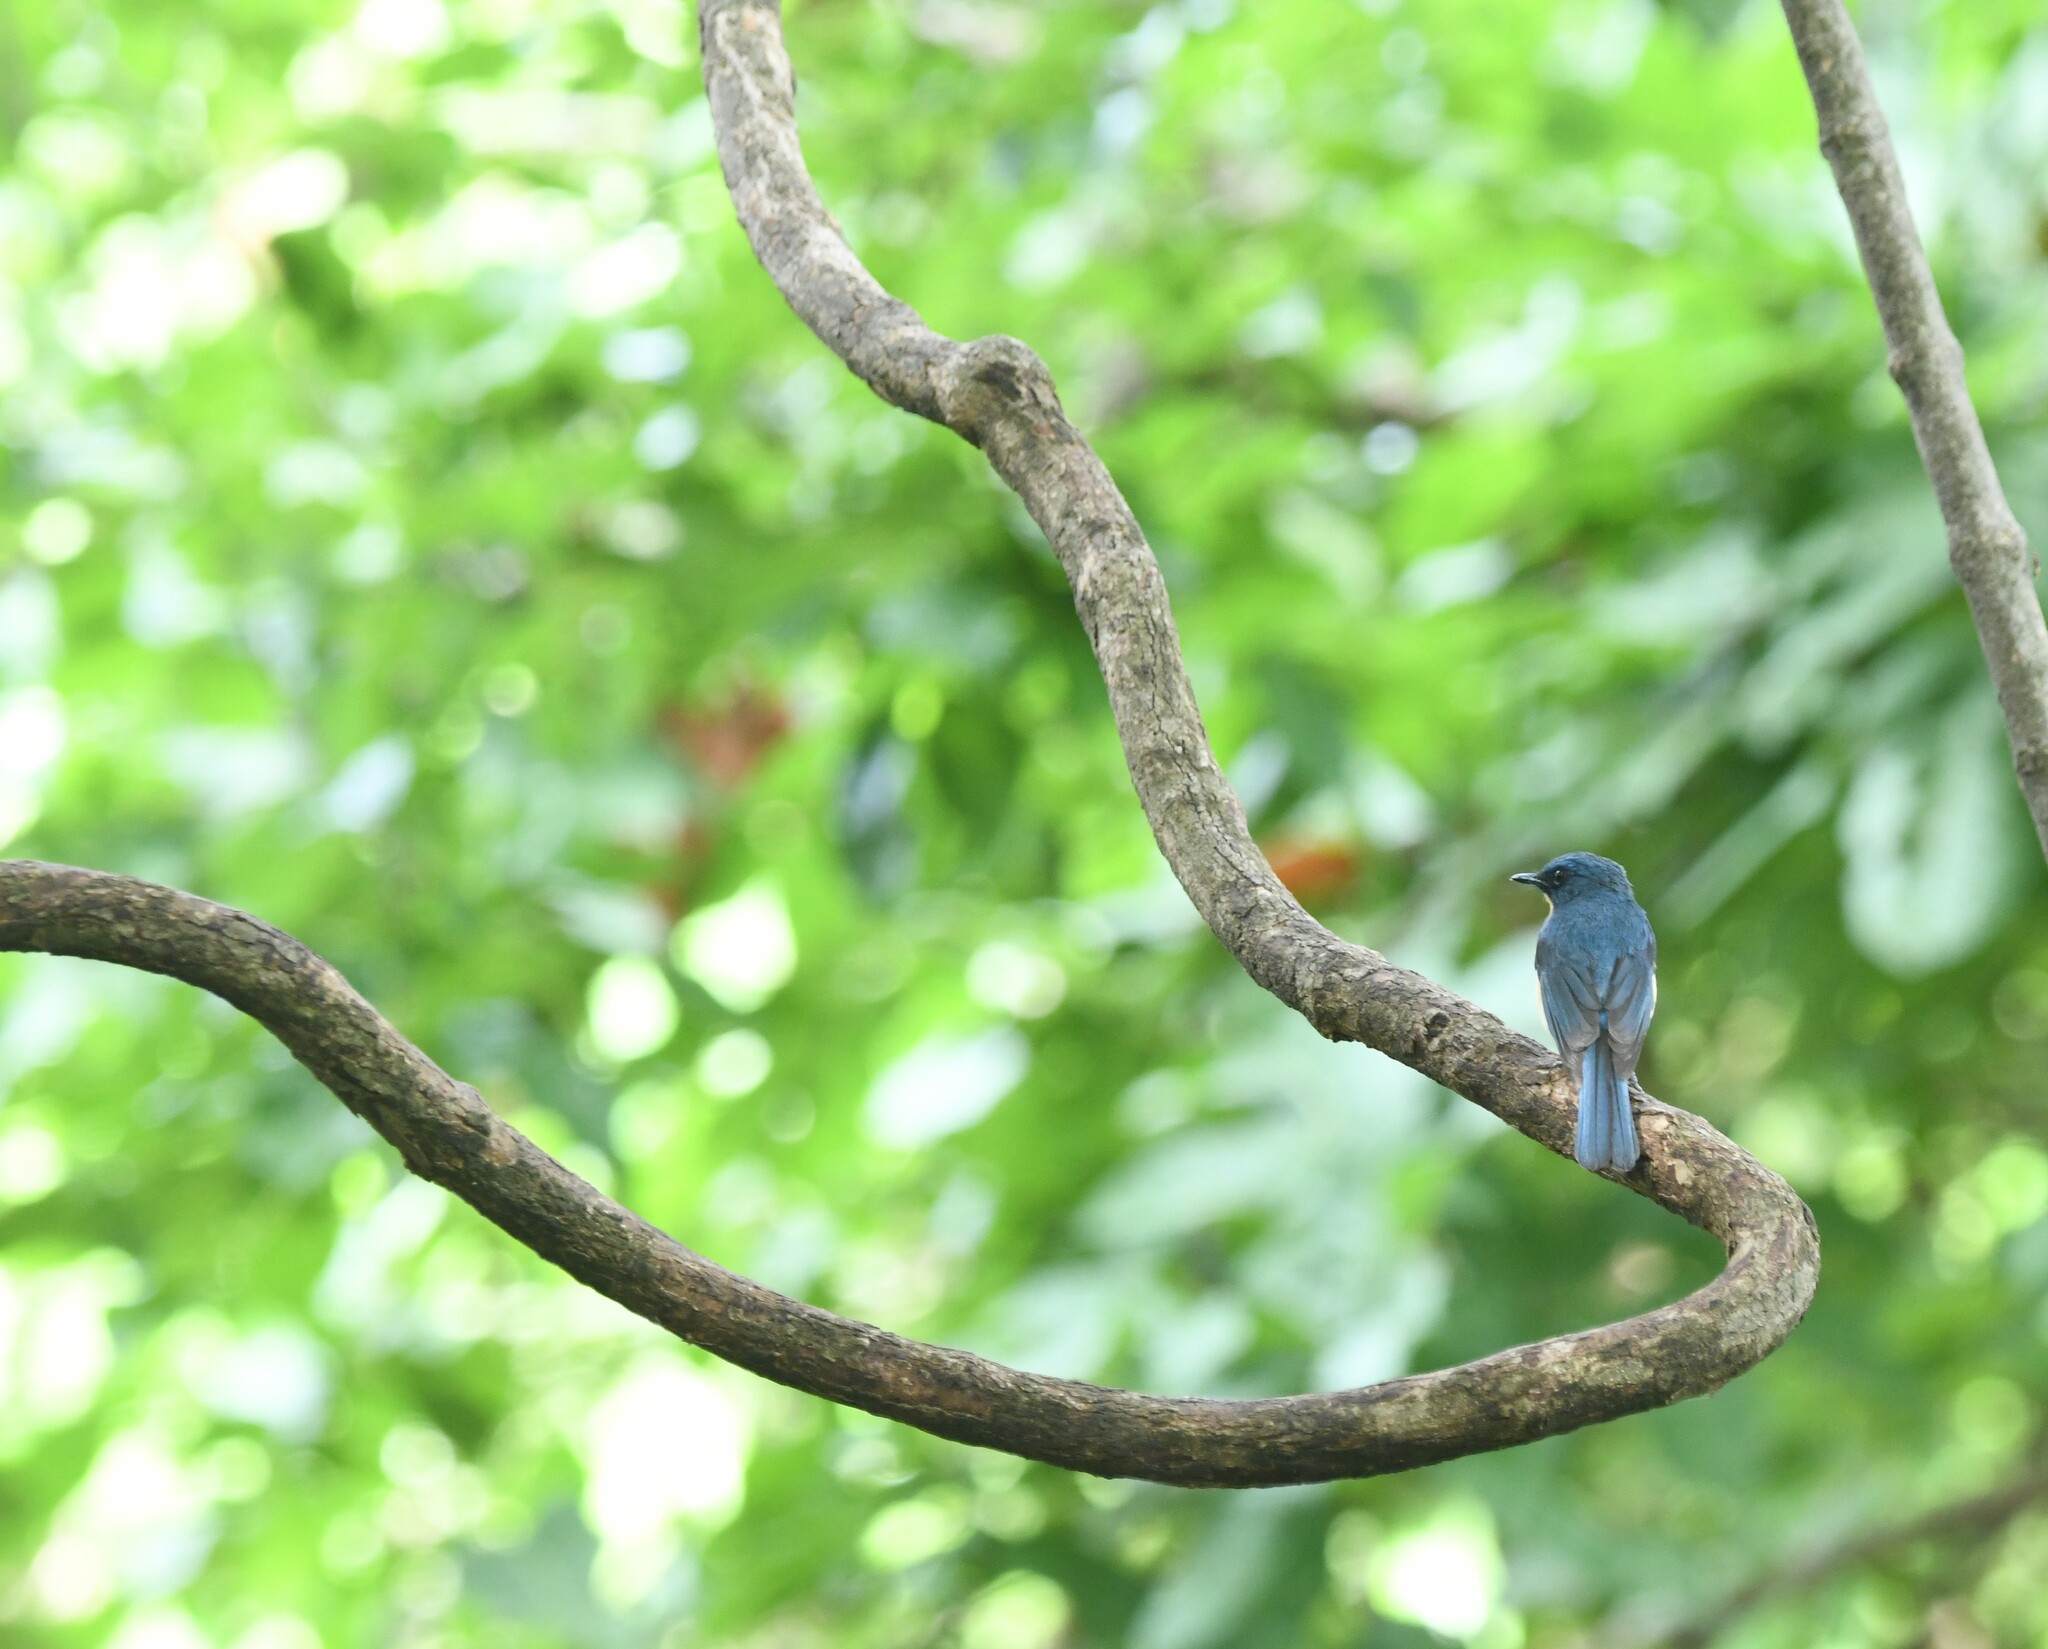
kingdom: Animalia
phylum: Chordata
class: Aves
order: Passeriformes
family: Muscicapidae
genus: Cyornis
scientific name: Cyornis tickelliae
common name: Tickell's blue flycatcher
